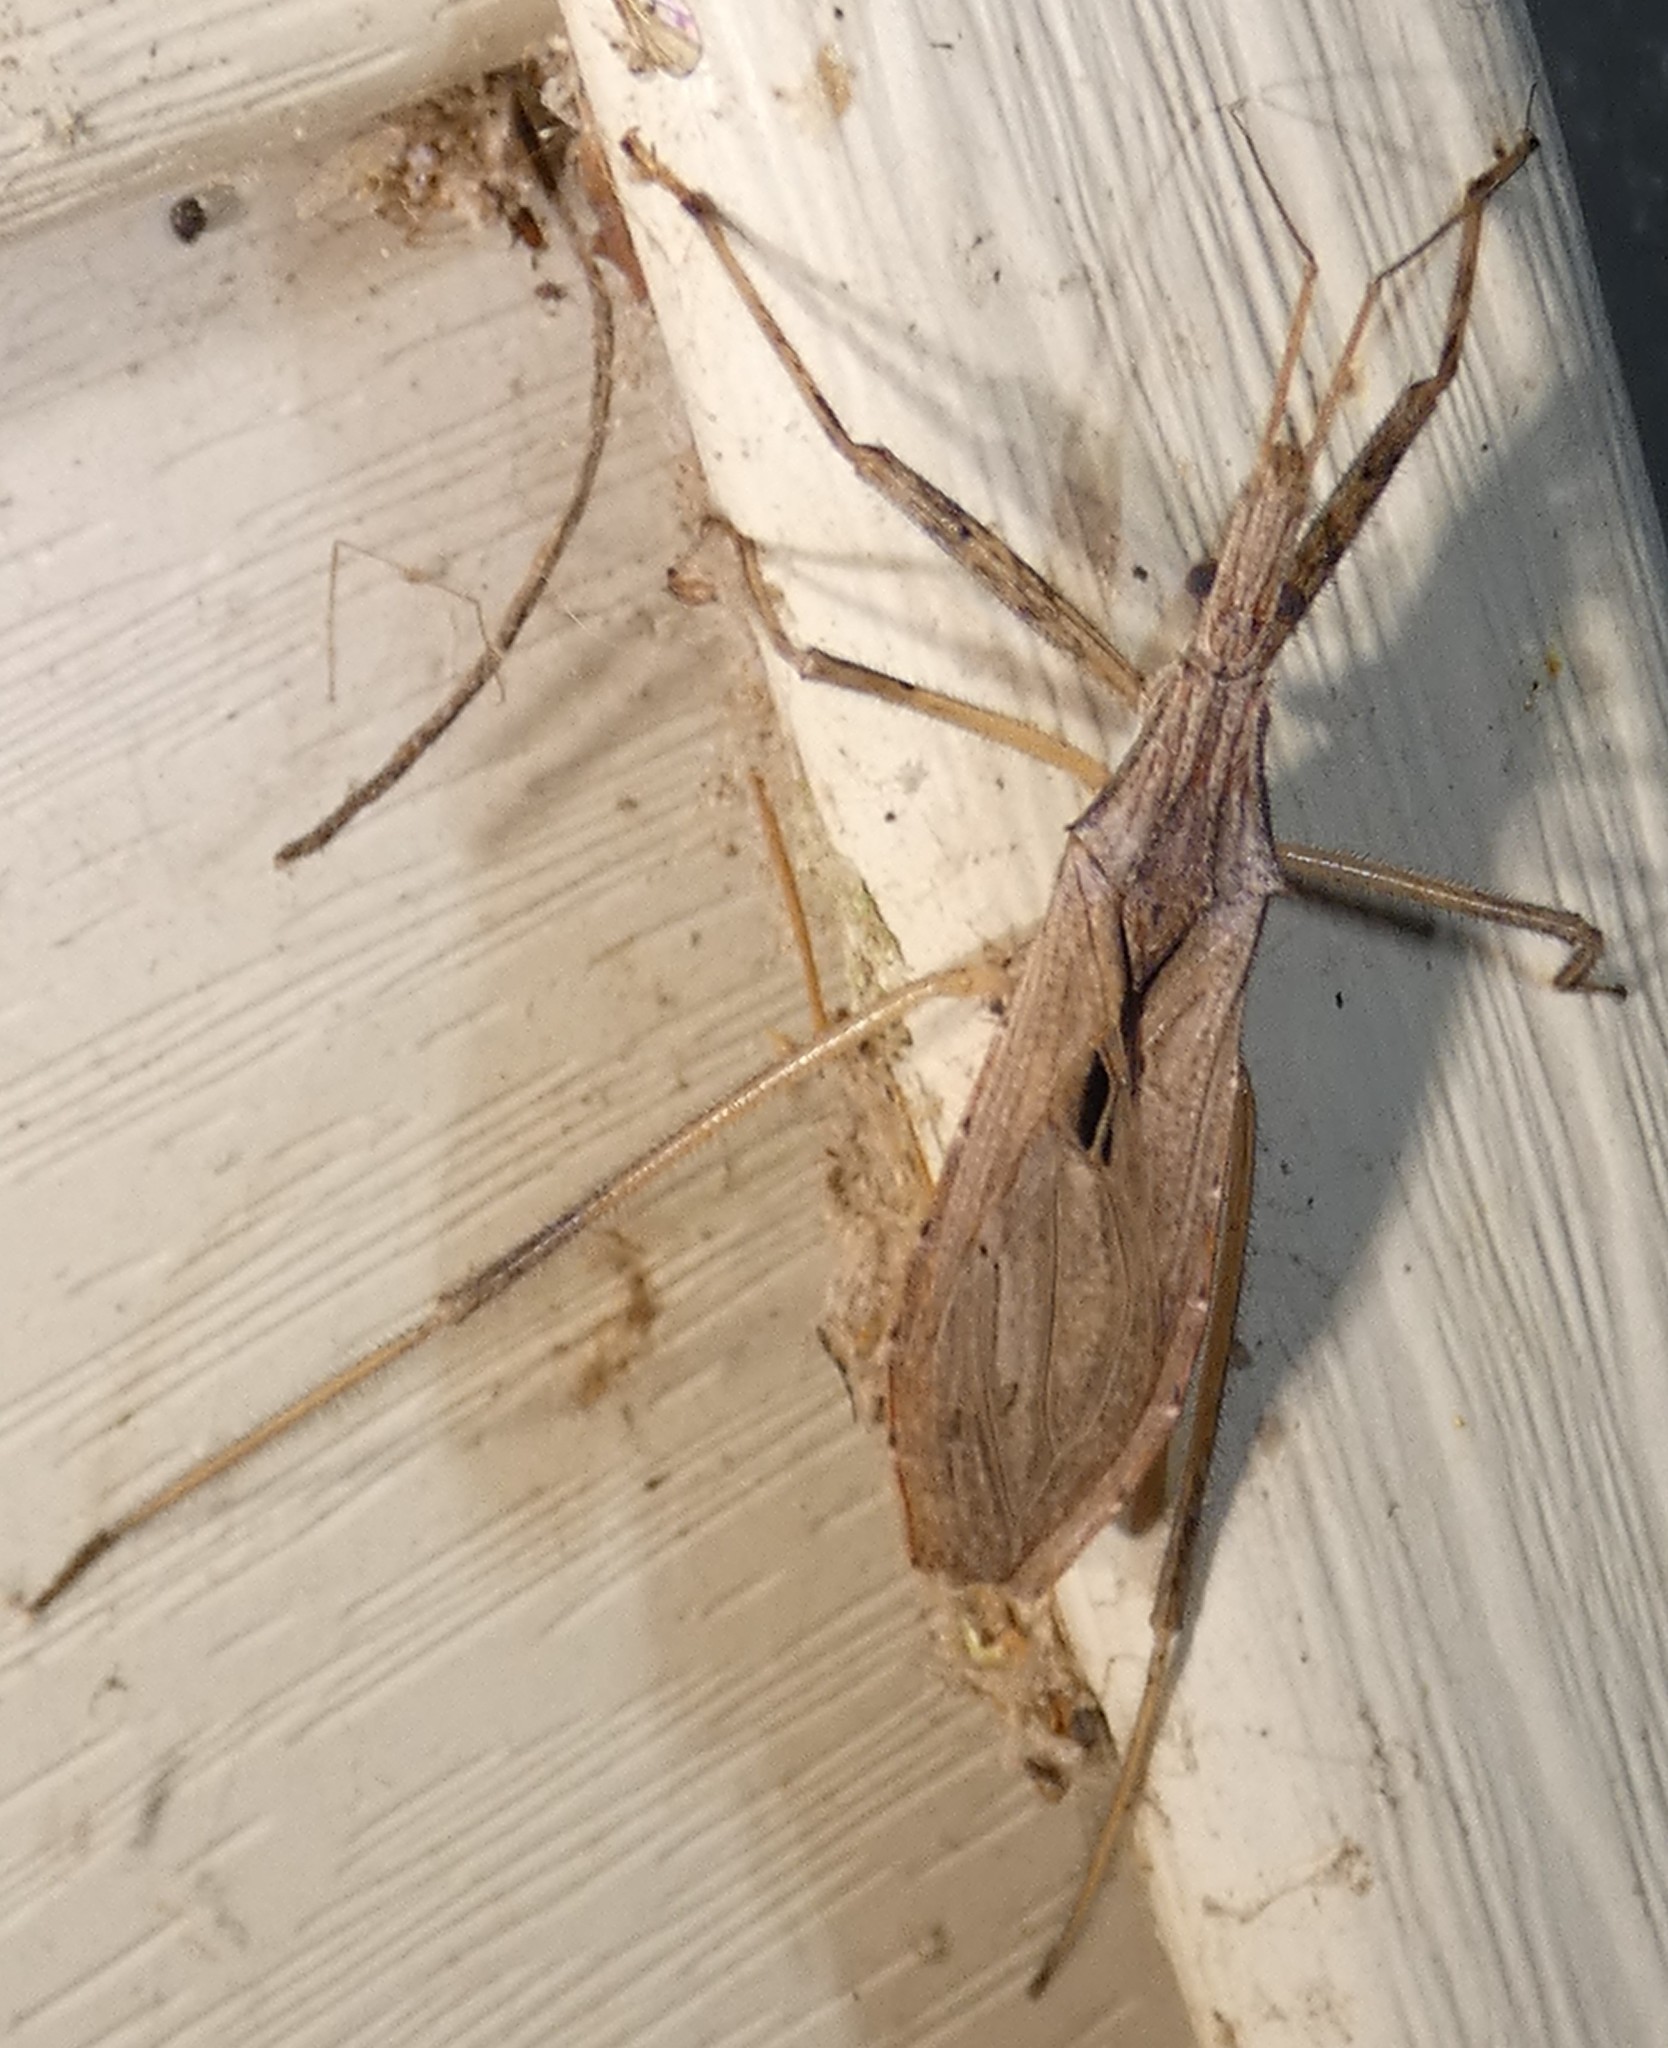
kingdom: Animalia
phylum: Arthropoda
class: Insecta
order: Hemiptera
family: Reduviidae
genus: Stenopoda
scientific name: Stenopoda spinulosa
